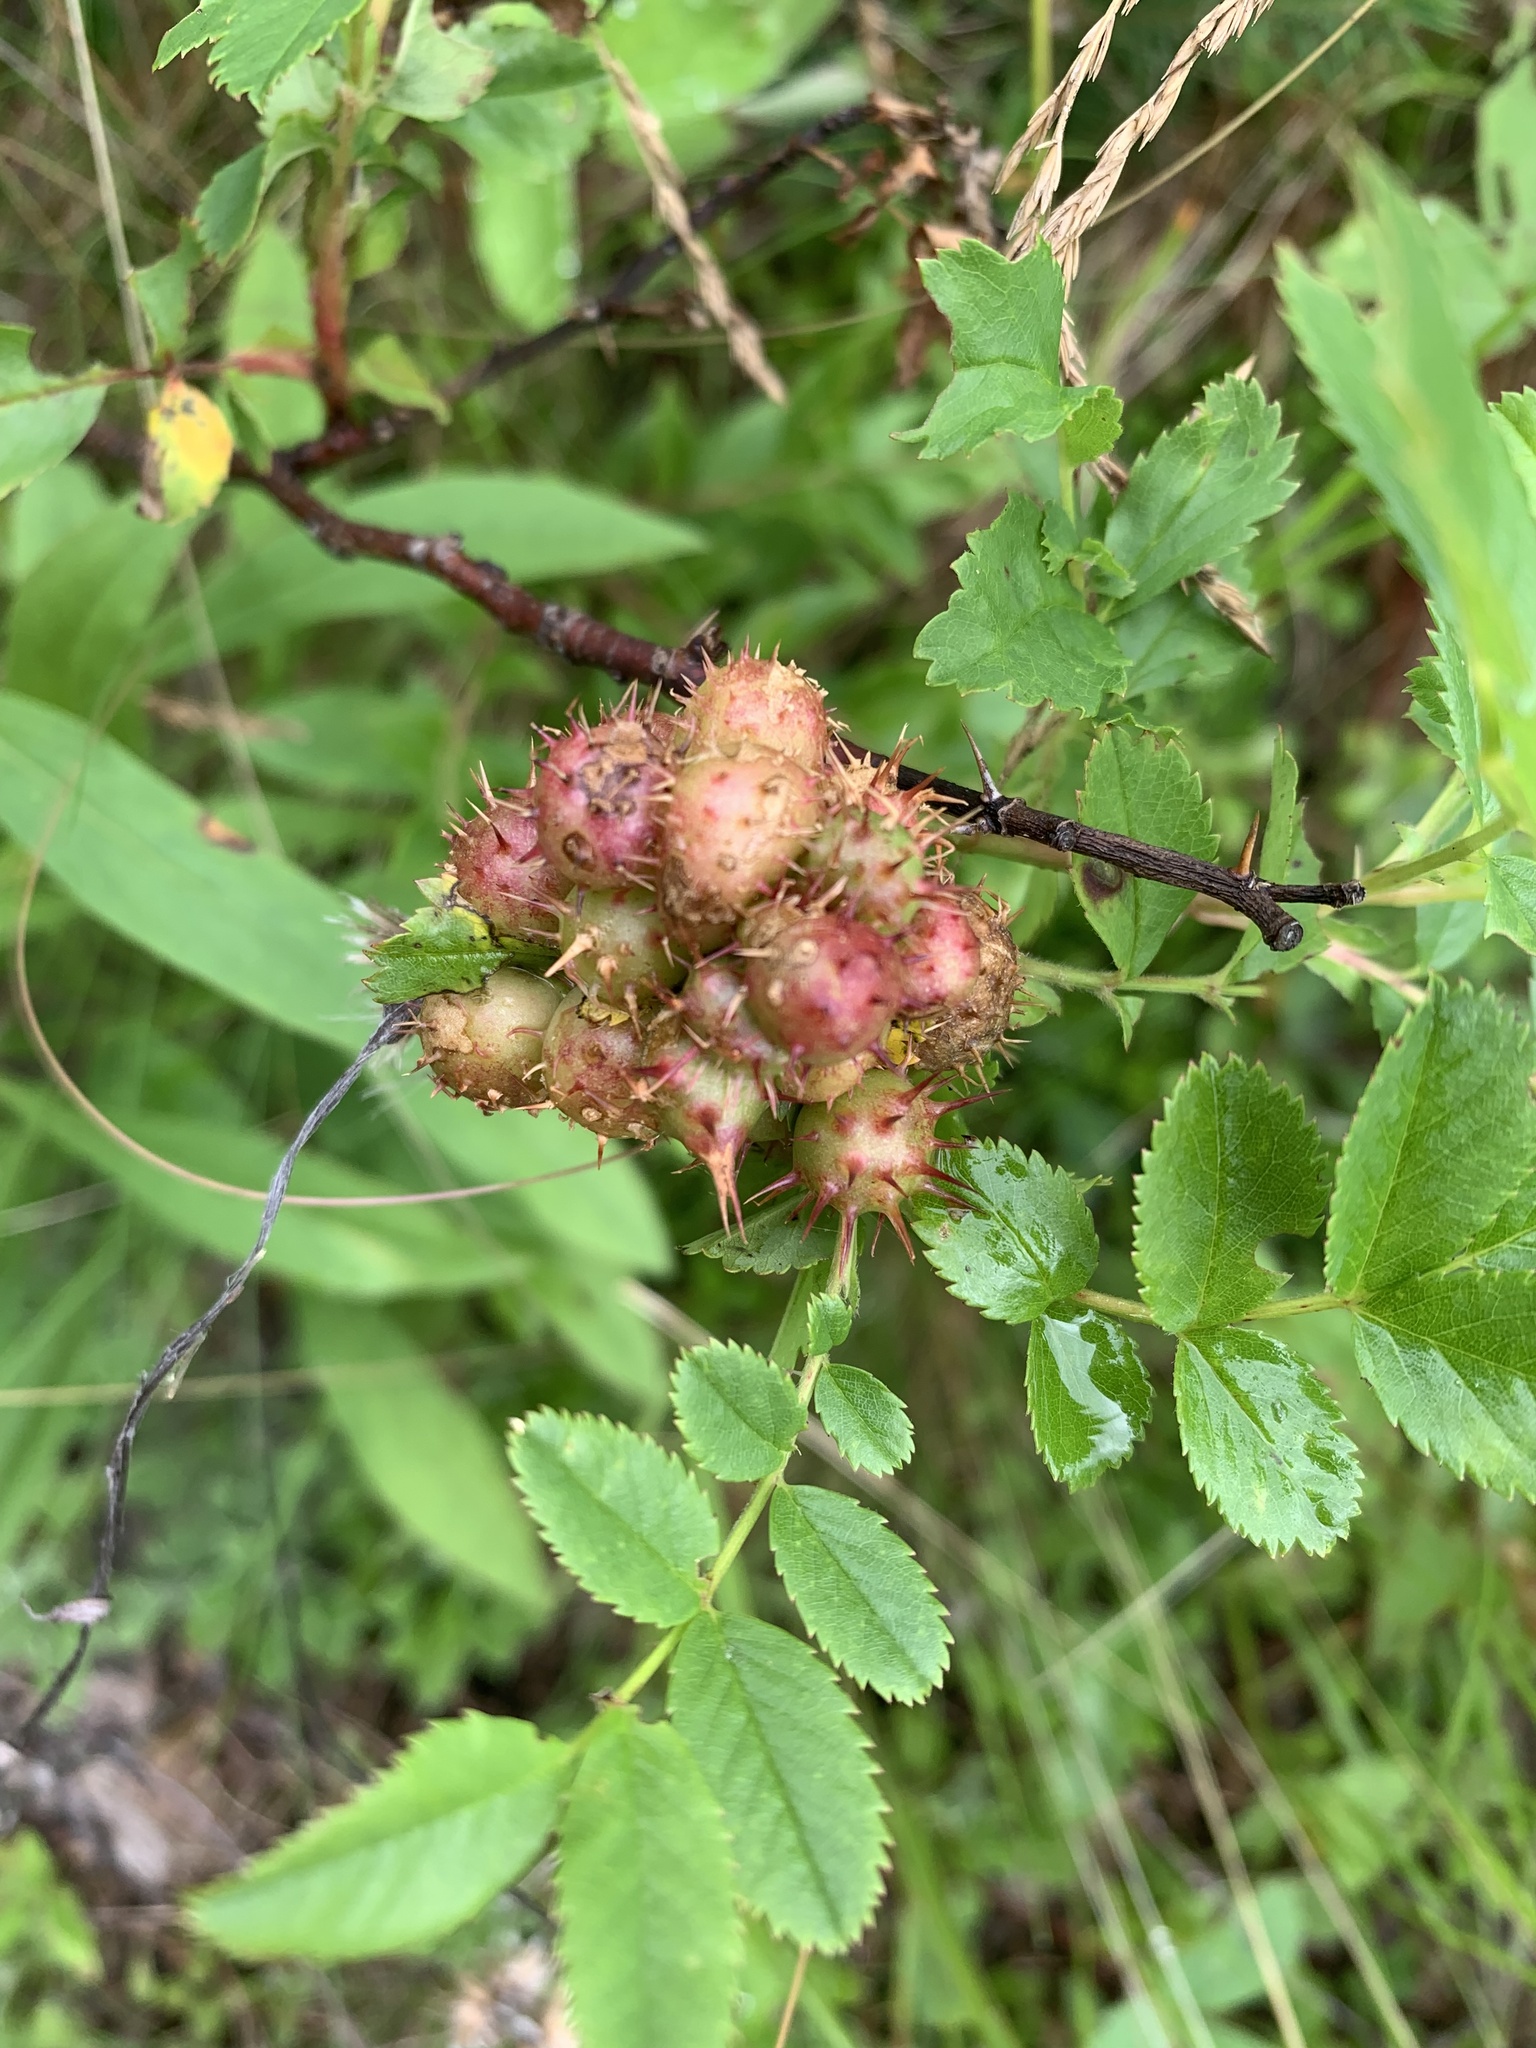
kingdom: Animalia
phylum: Arthropoda
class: Insecta
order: Hymenoptera
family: Cynipidae
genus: Diplolepis
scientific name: Diplolepis polita
